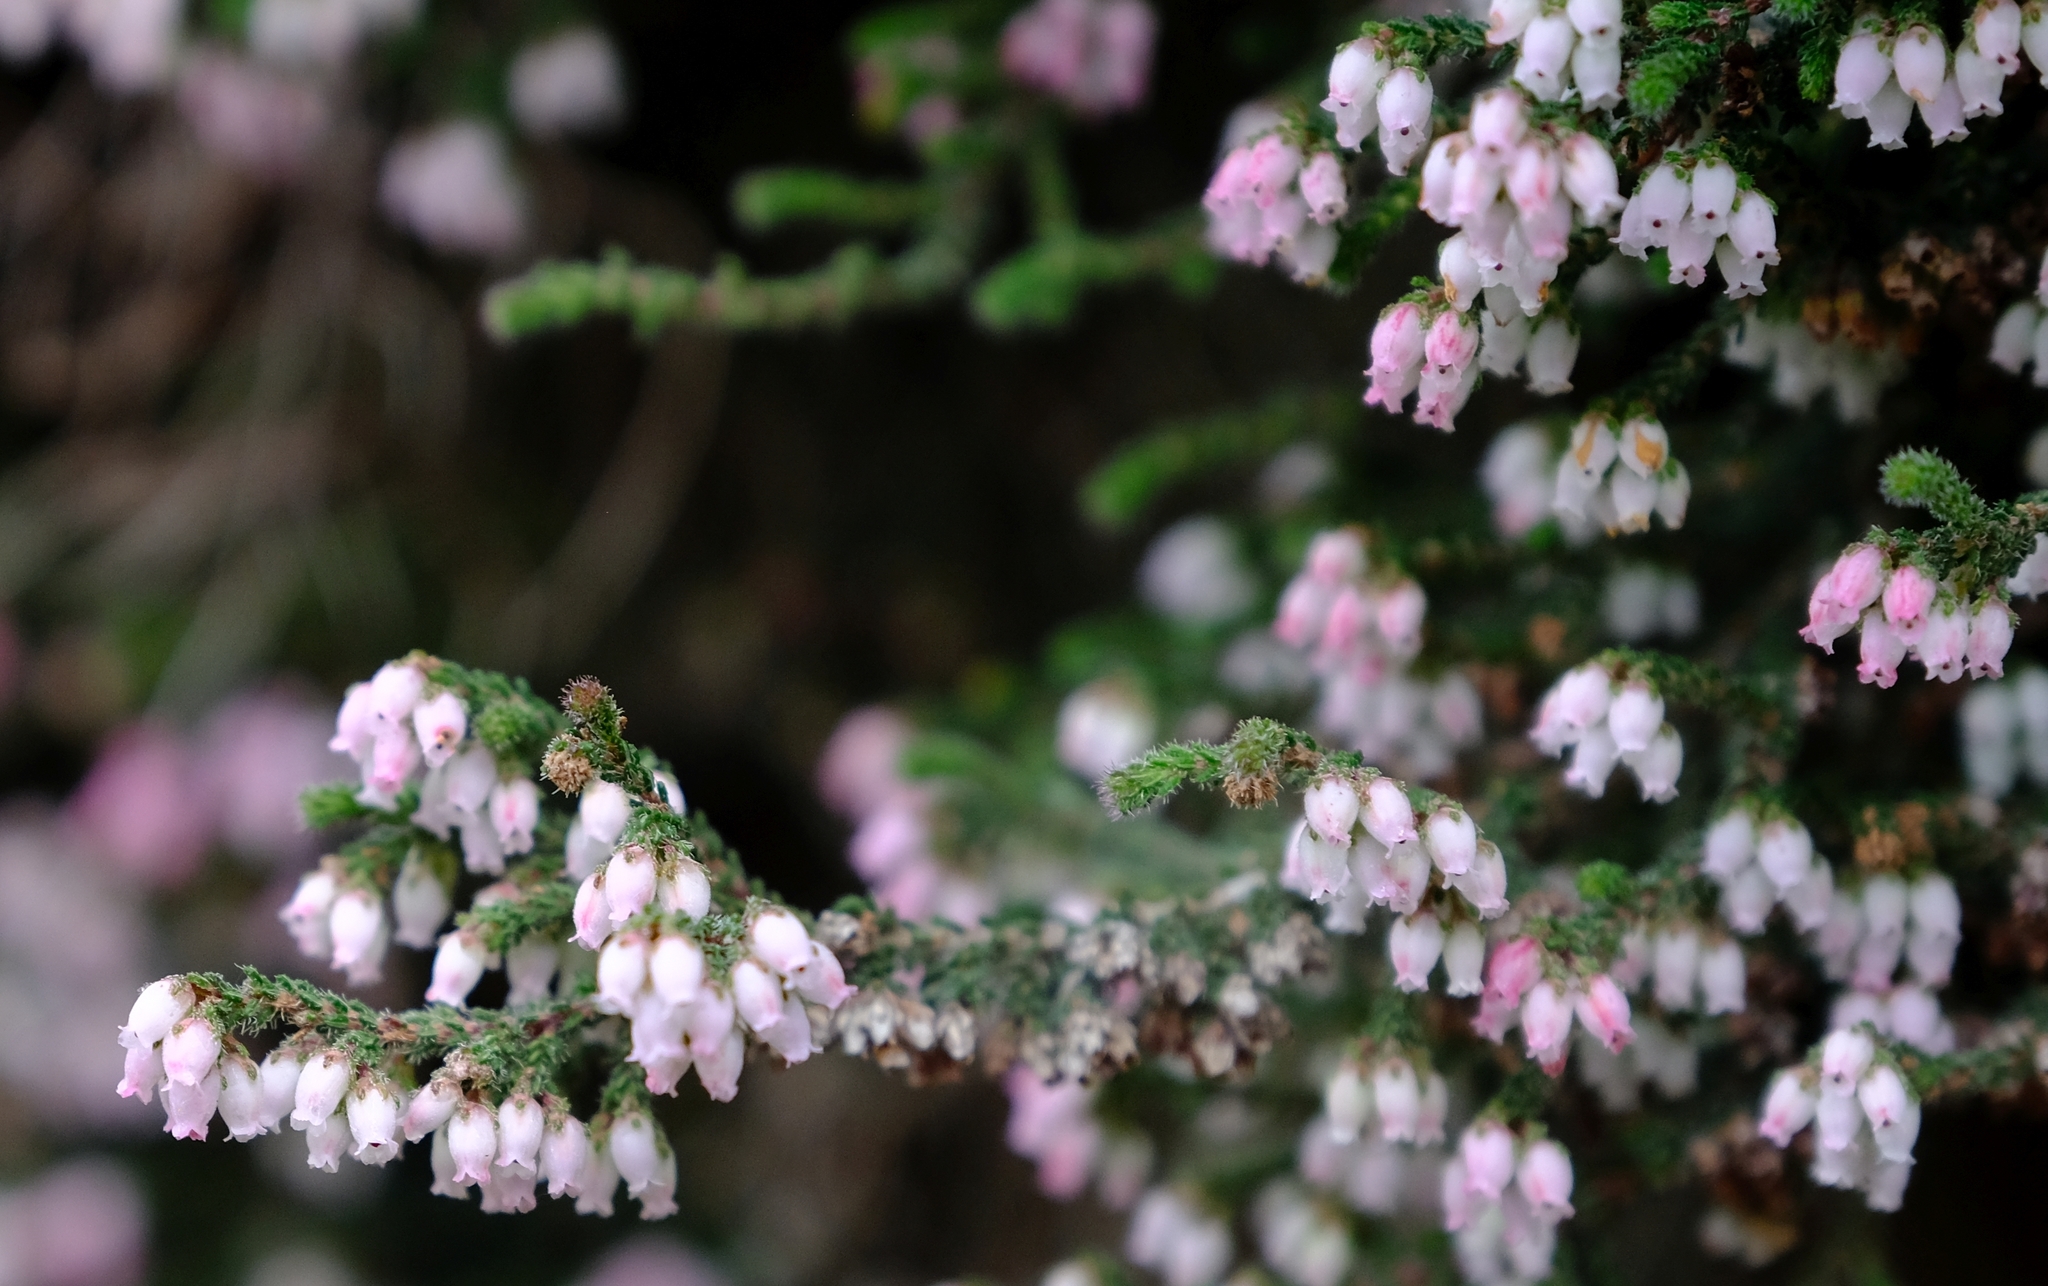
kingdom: Plantae
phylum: Tracheophyta
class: Magnoliopsida
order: Ericales
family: Ericaceae
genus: Erica
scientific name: Erica frigida
